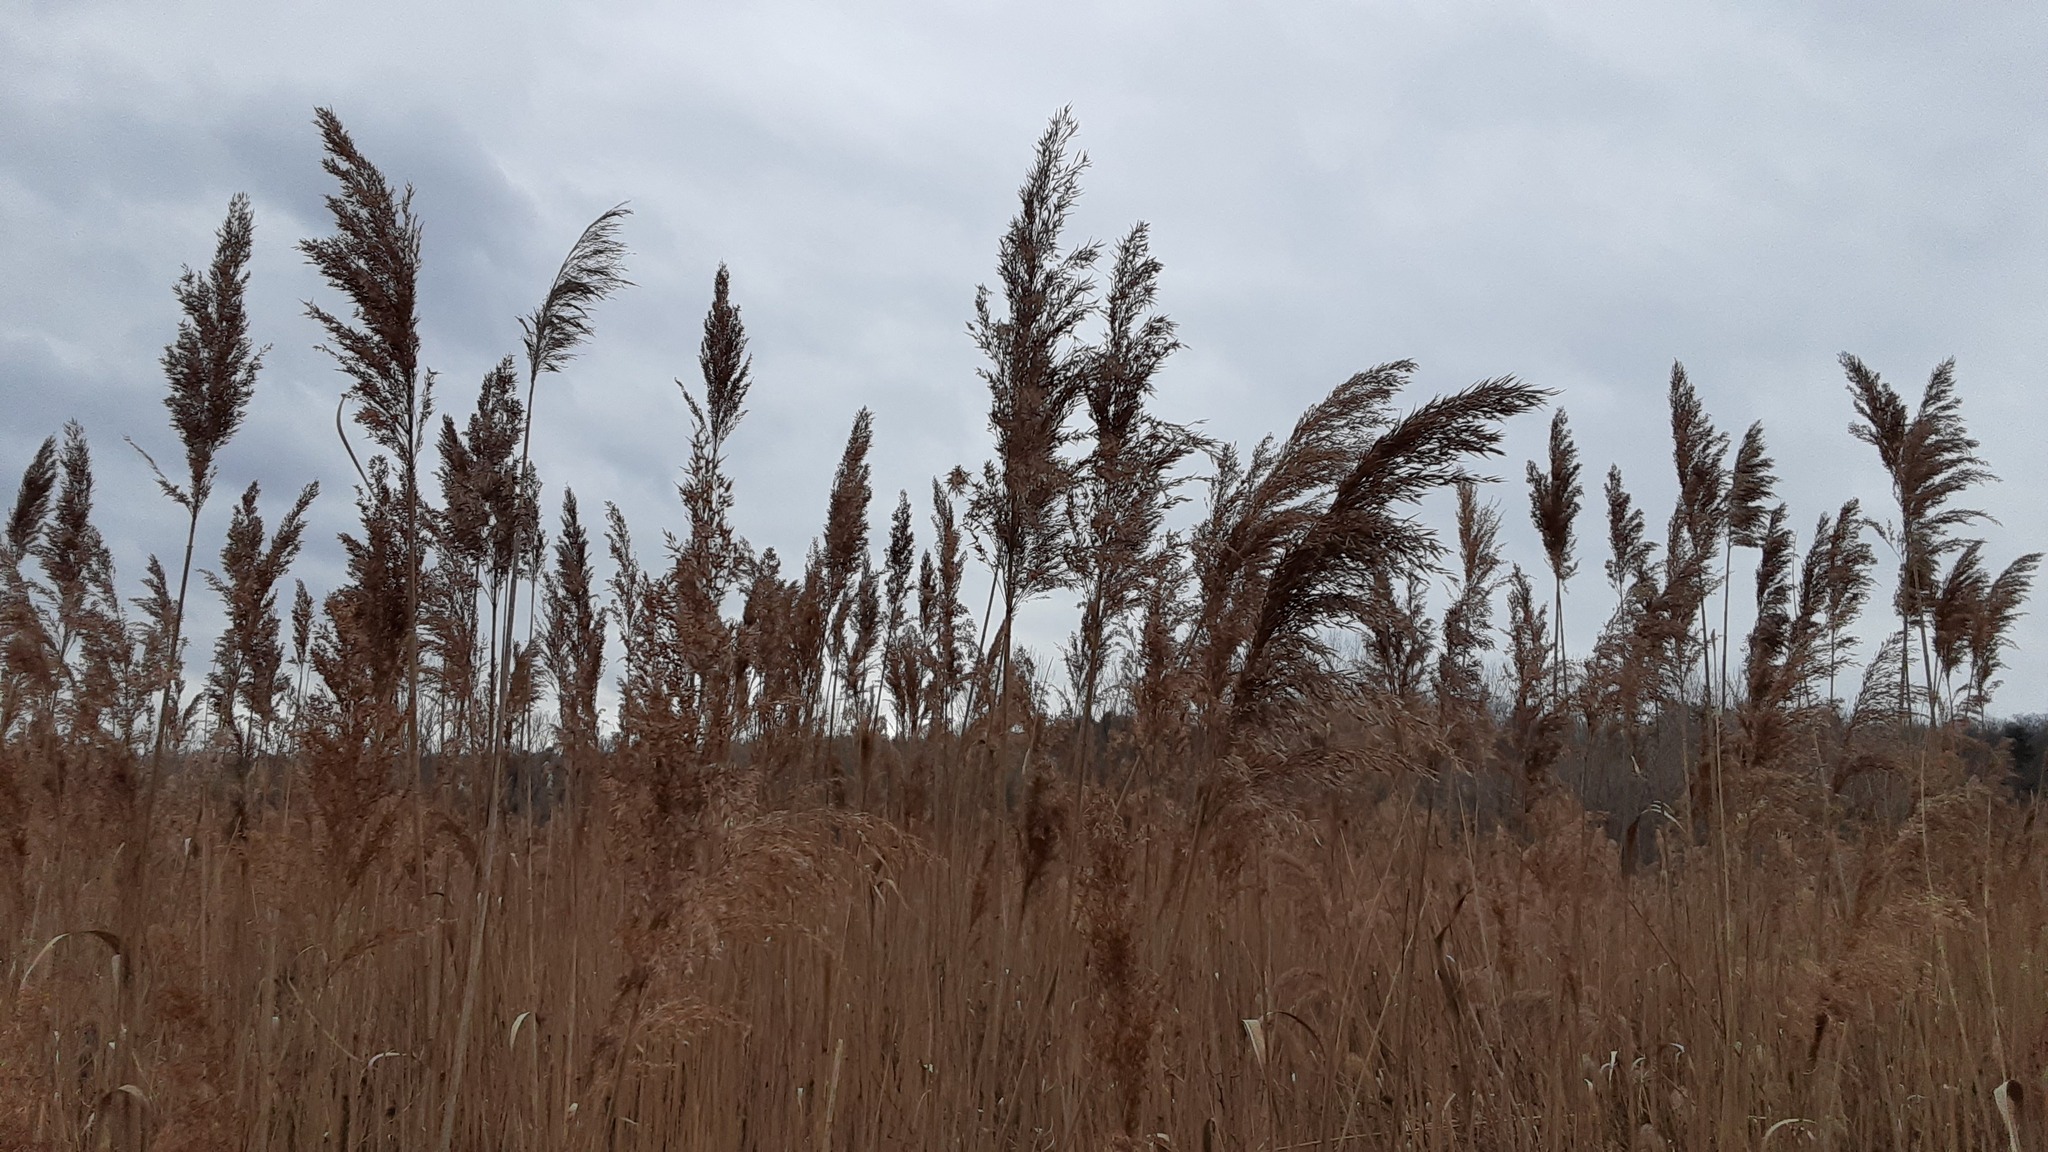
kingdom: Plantae
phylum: Tracheophyta
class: Liliopsida
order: Poales
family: Poaceae
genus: Phragmites
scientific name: Phragmites australis
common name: Common reed
